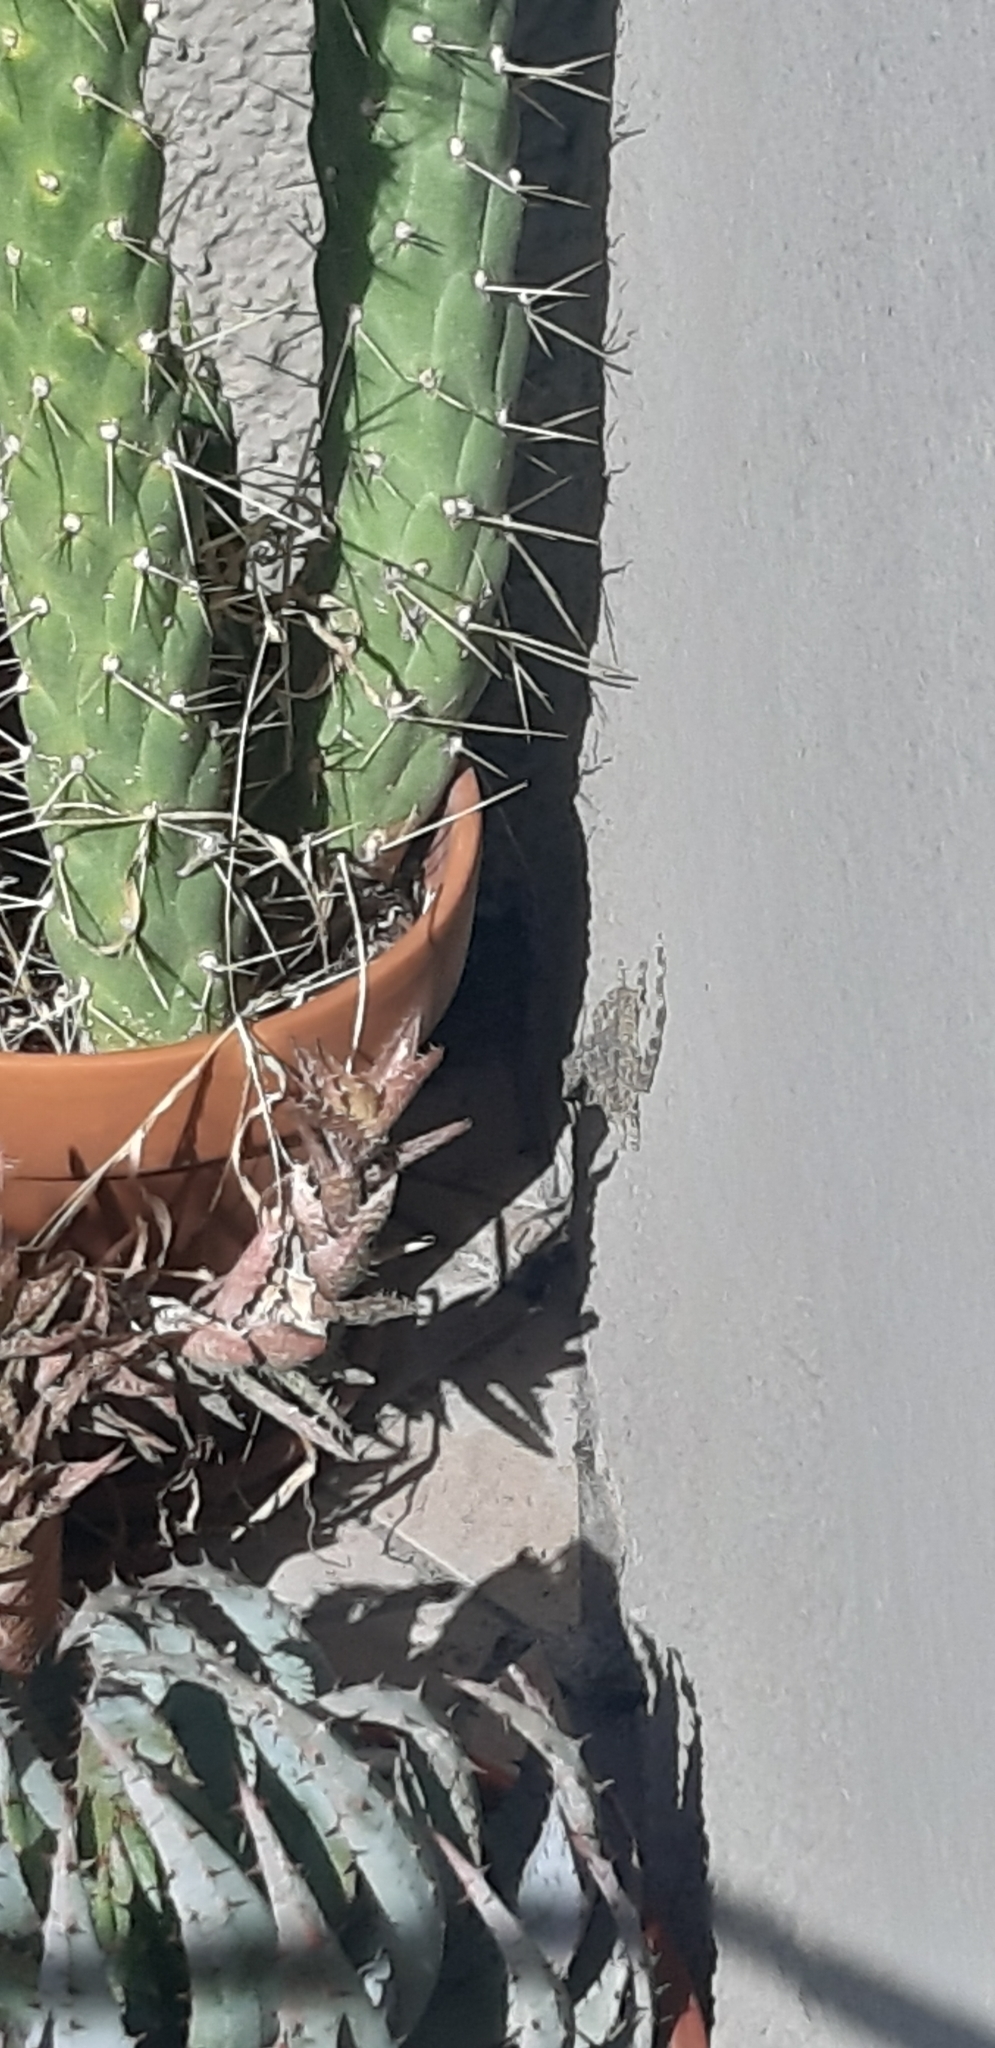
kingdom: Animalia
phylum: Chordata
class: Squamata
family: Phyllodactylidae
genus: Tarentola
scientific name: Tarentola mauritanica
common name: Moorish gecko
